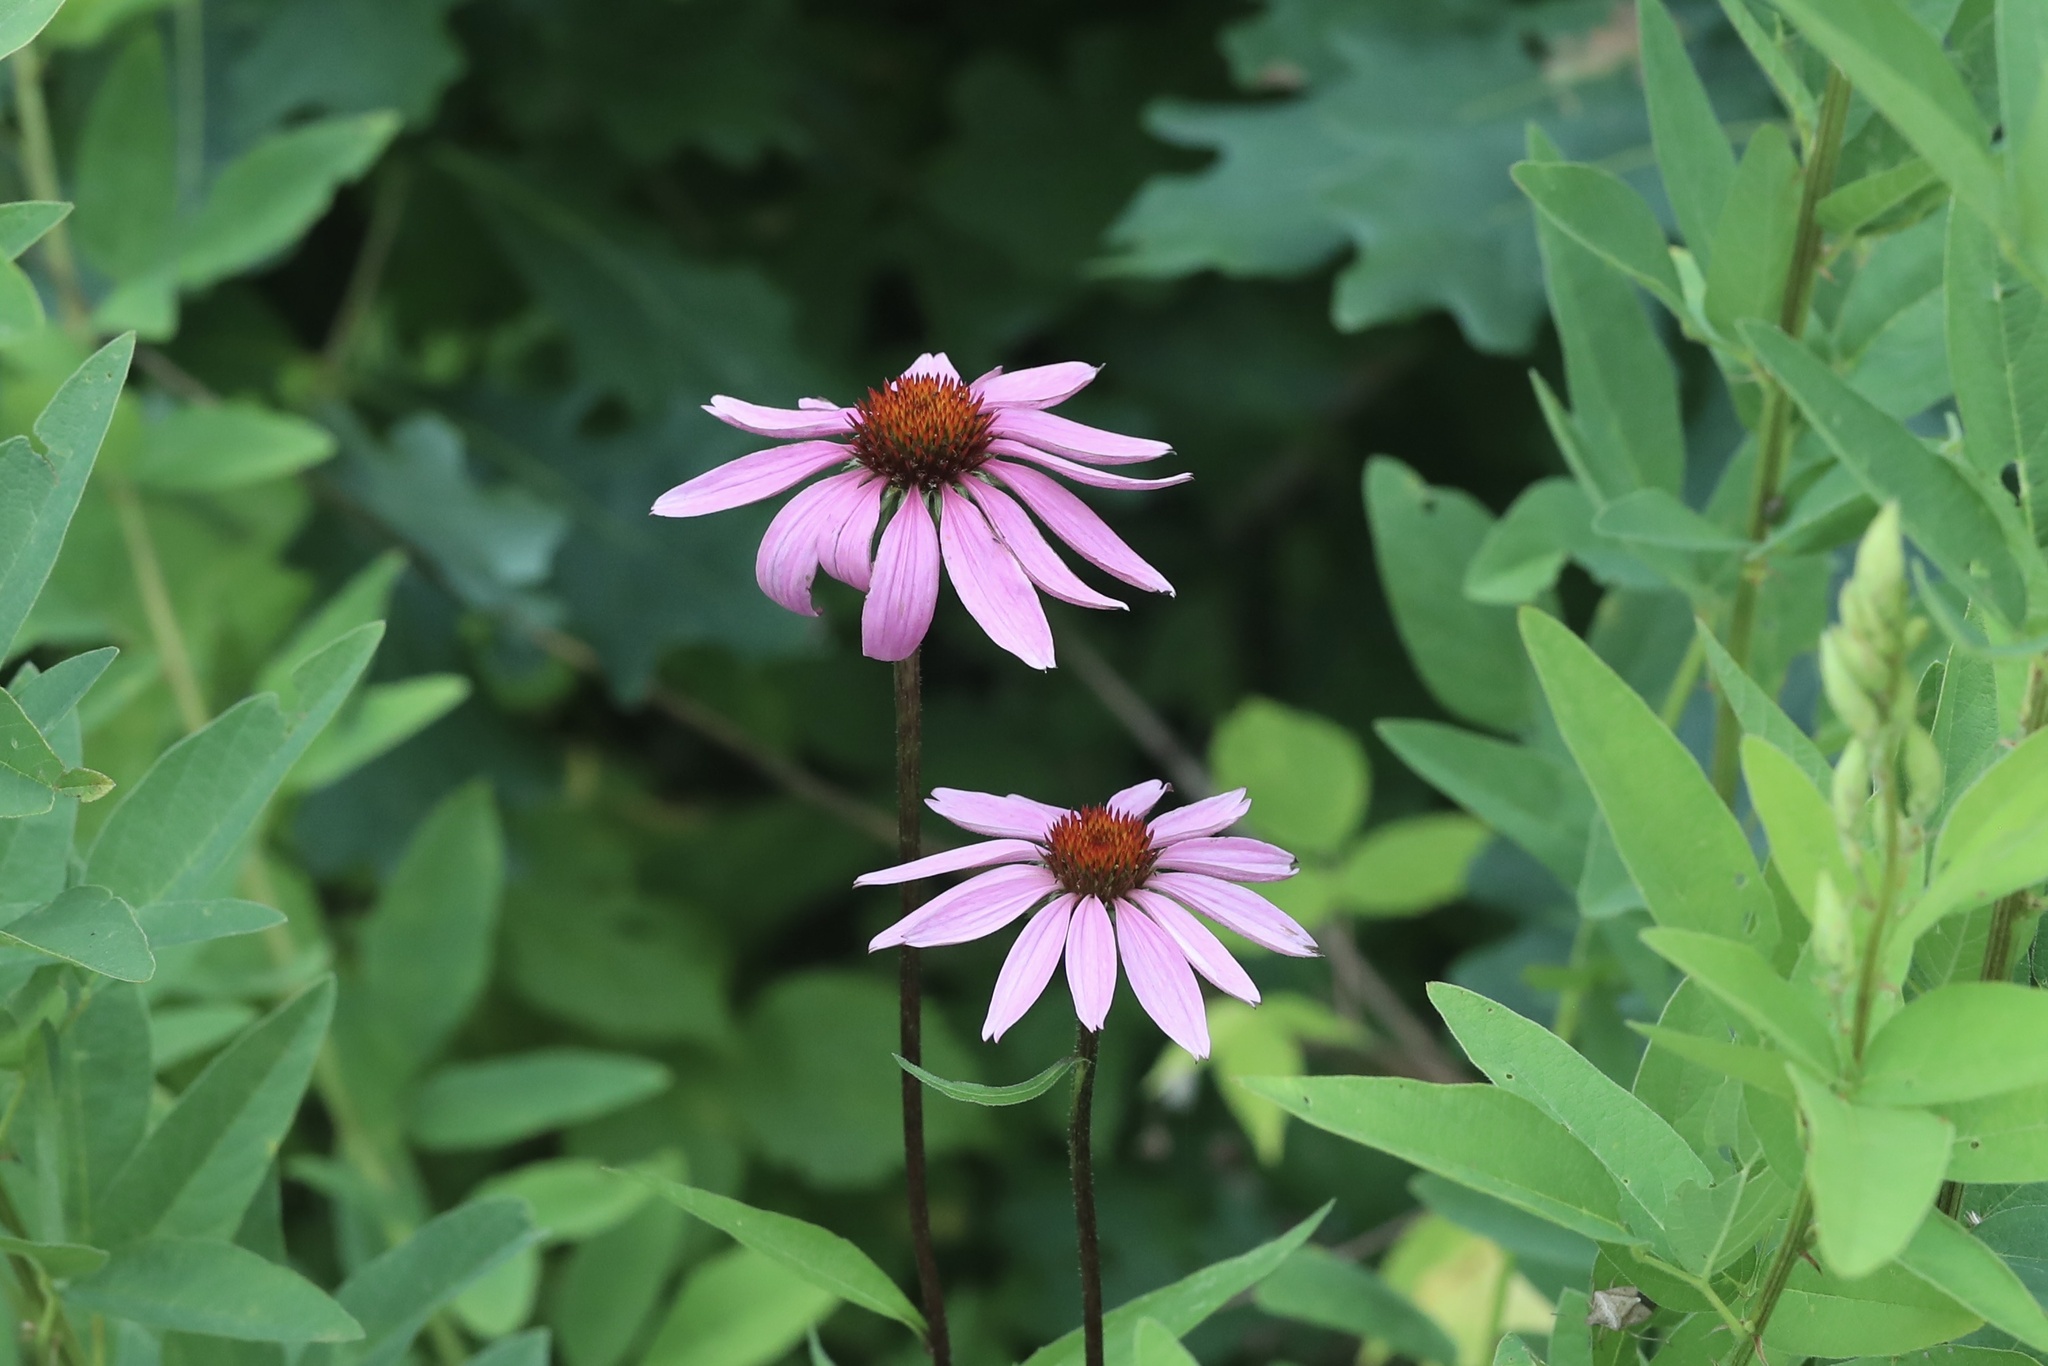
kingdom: Plantae
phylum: Tracheophyta
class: Magnoliopsida
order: Asterales
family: Asteraceae
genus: Echinacea
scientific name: Echinacea purpurea
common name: Broad-leaved purple coneflower
